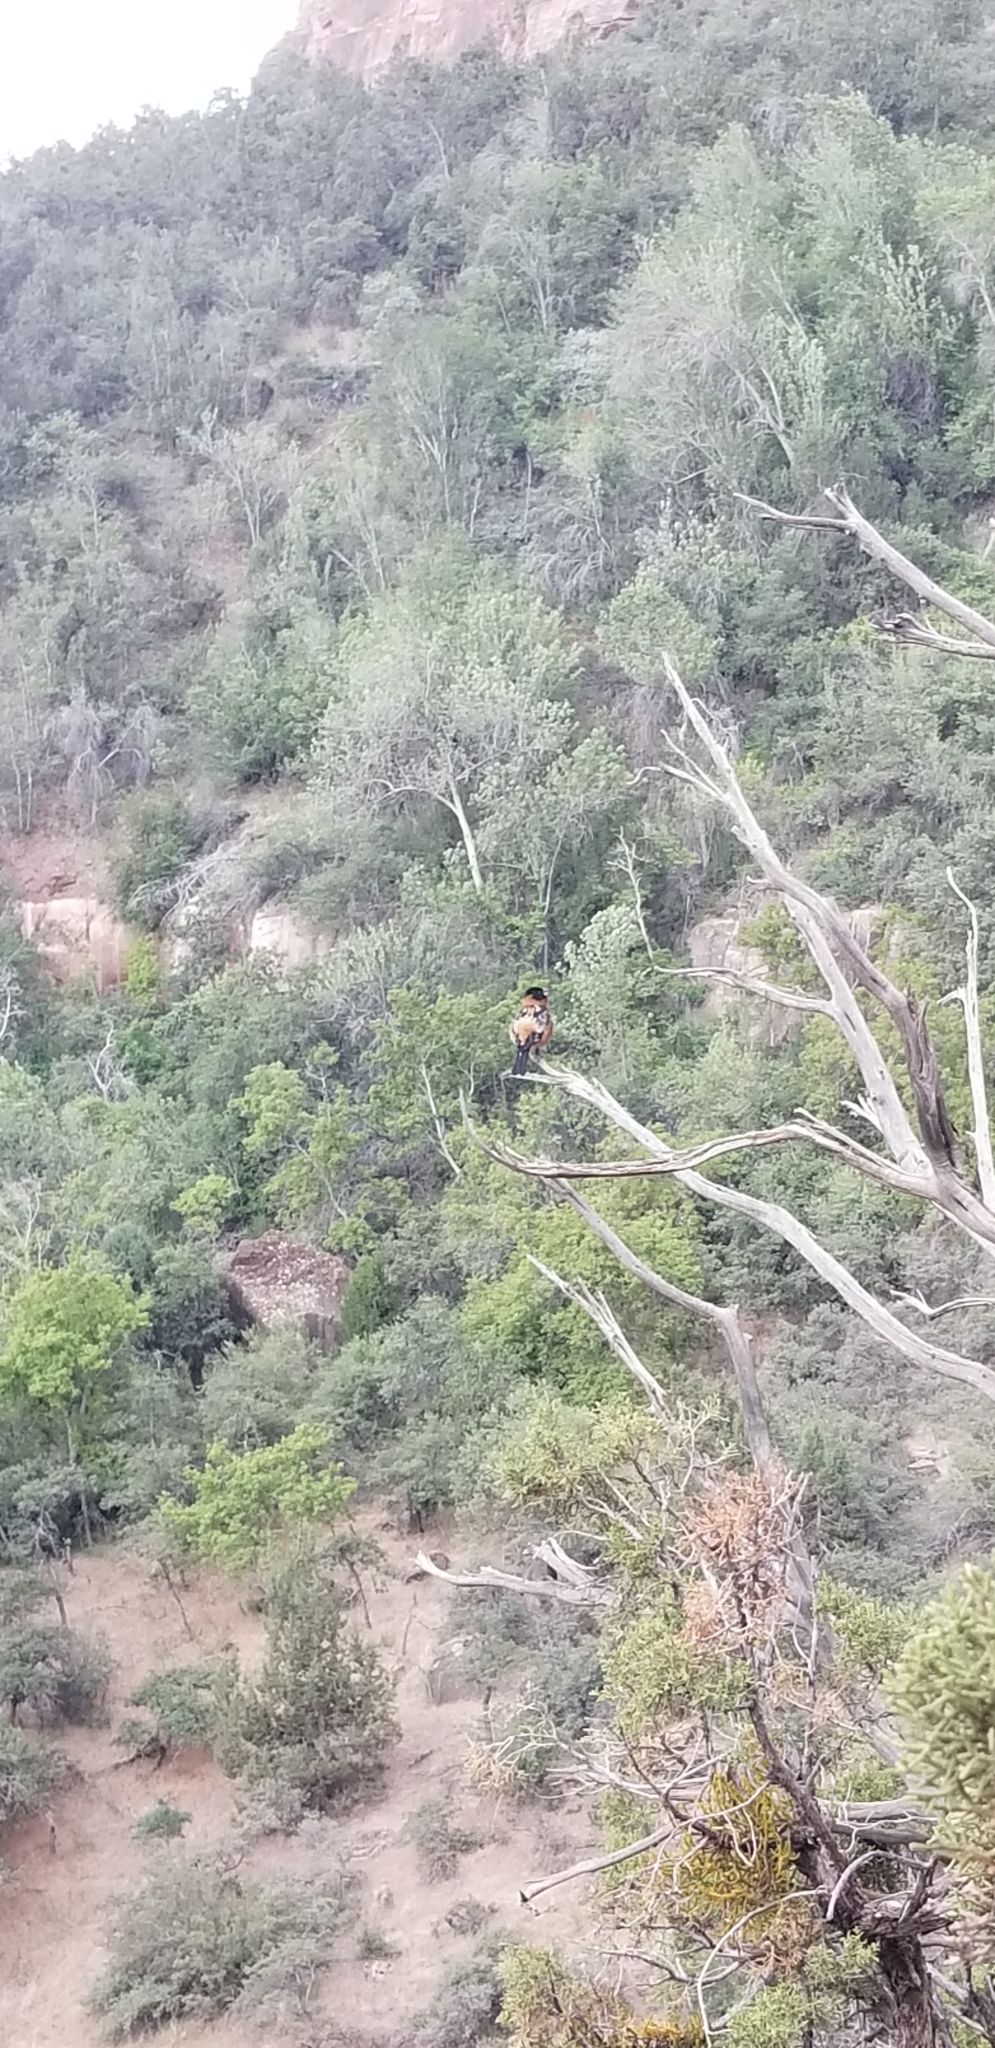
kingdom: Animalia
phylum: Chordata
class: Aves
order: Passeriformes
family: Cardinalidae
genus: Pheucticus
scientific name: Pheucticus melanocephalus
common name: Black-headed grosbeak
